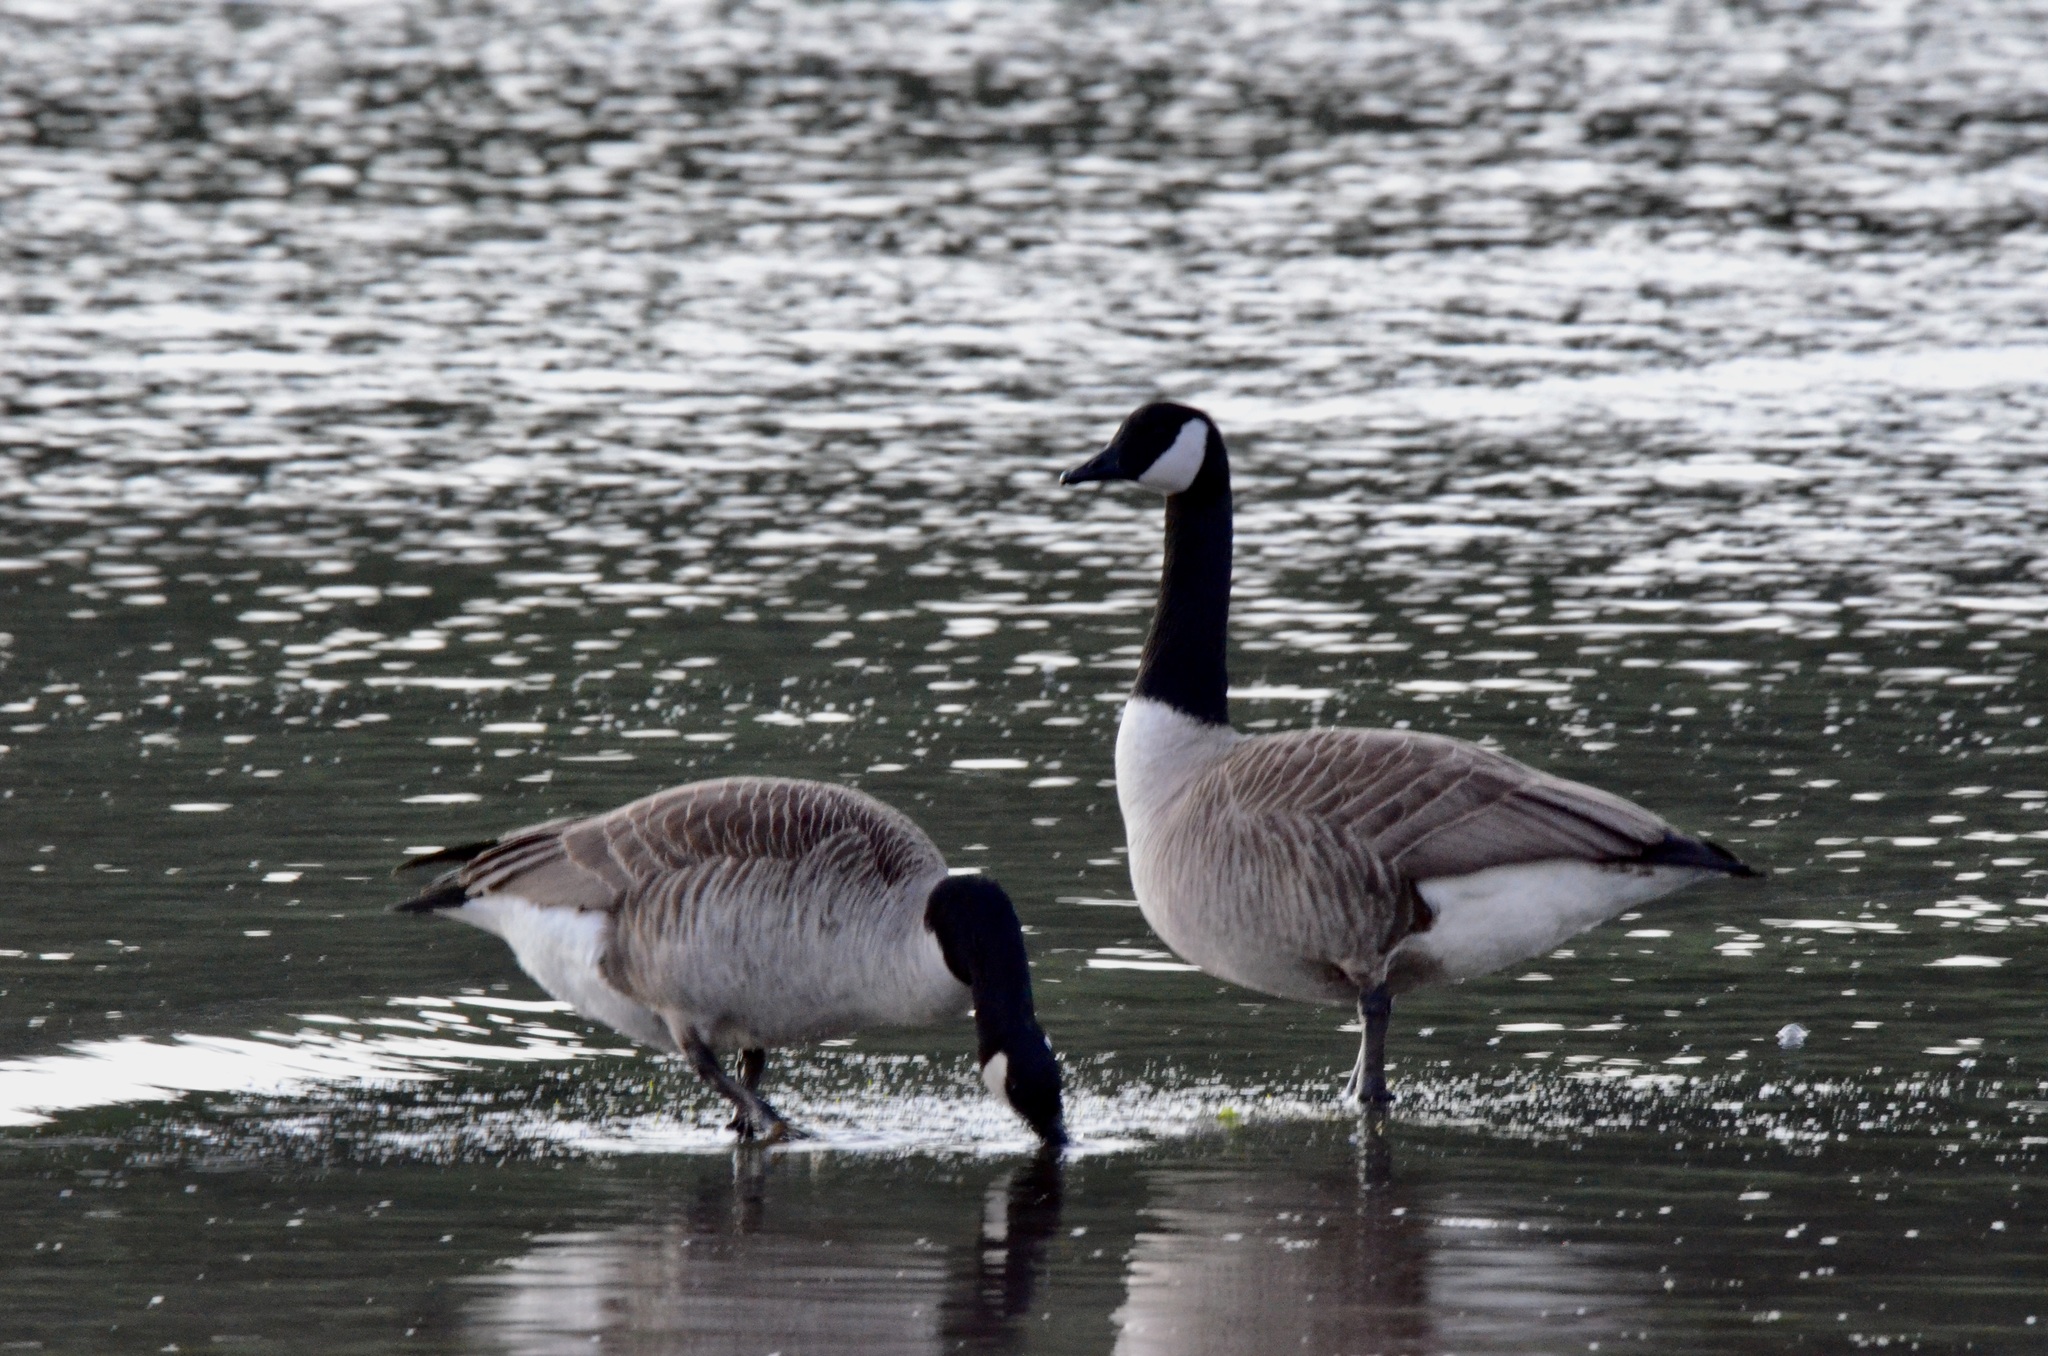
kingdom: Animalia
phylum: Chordata
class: Aves
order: Anseriformes
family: Anatidae
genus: Branta
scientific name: Branta canadensis
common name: Canada goose
